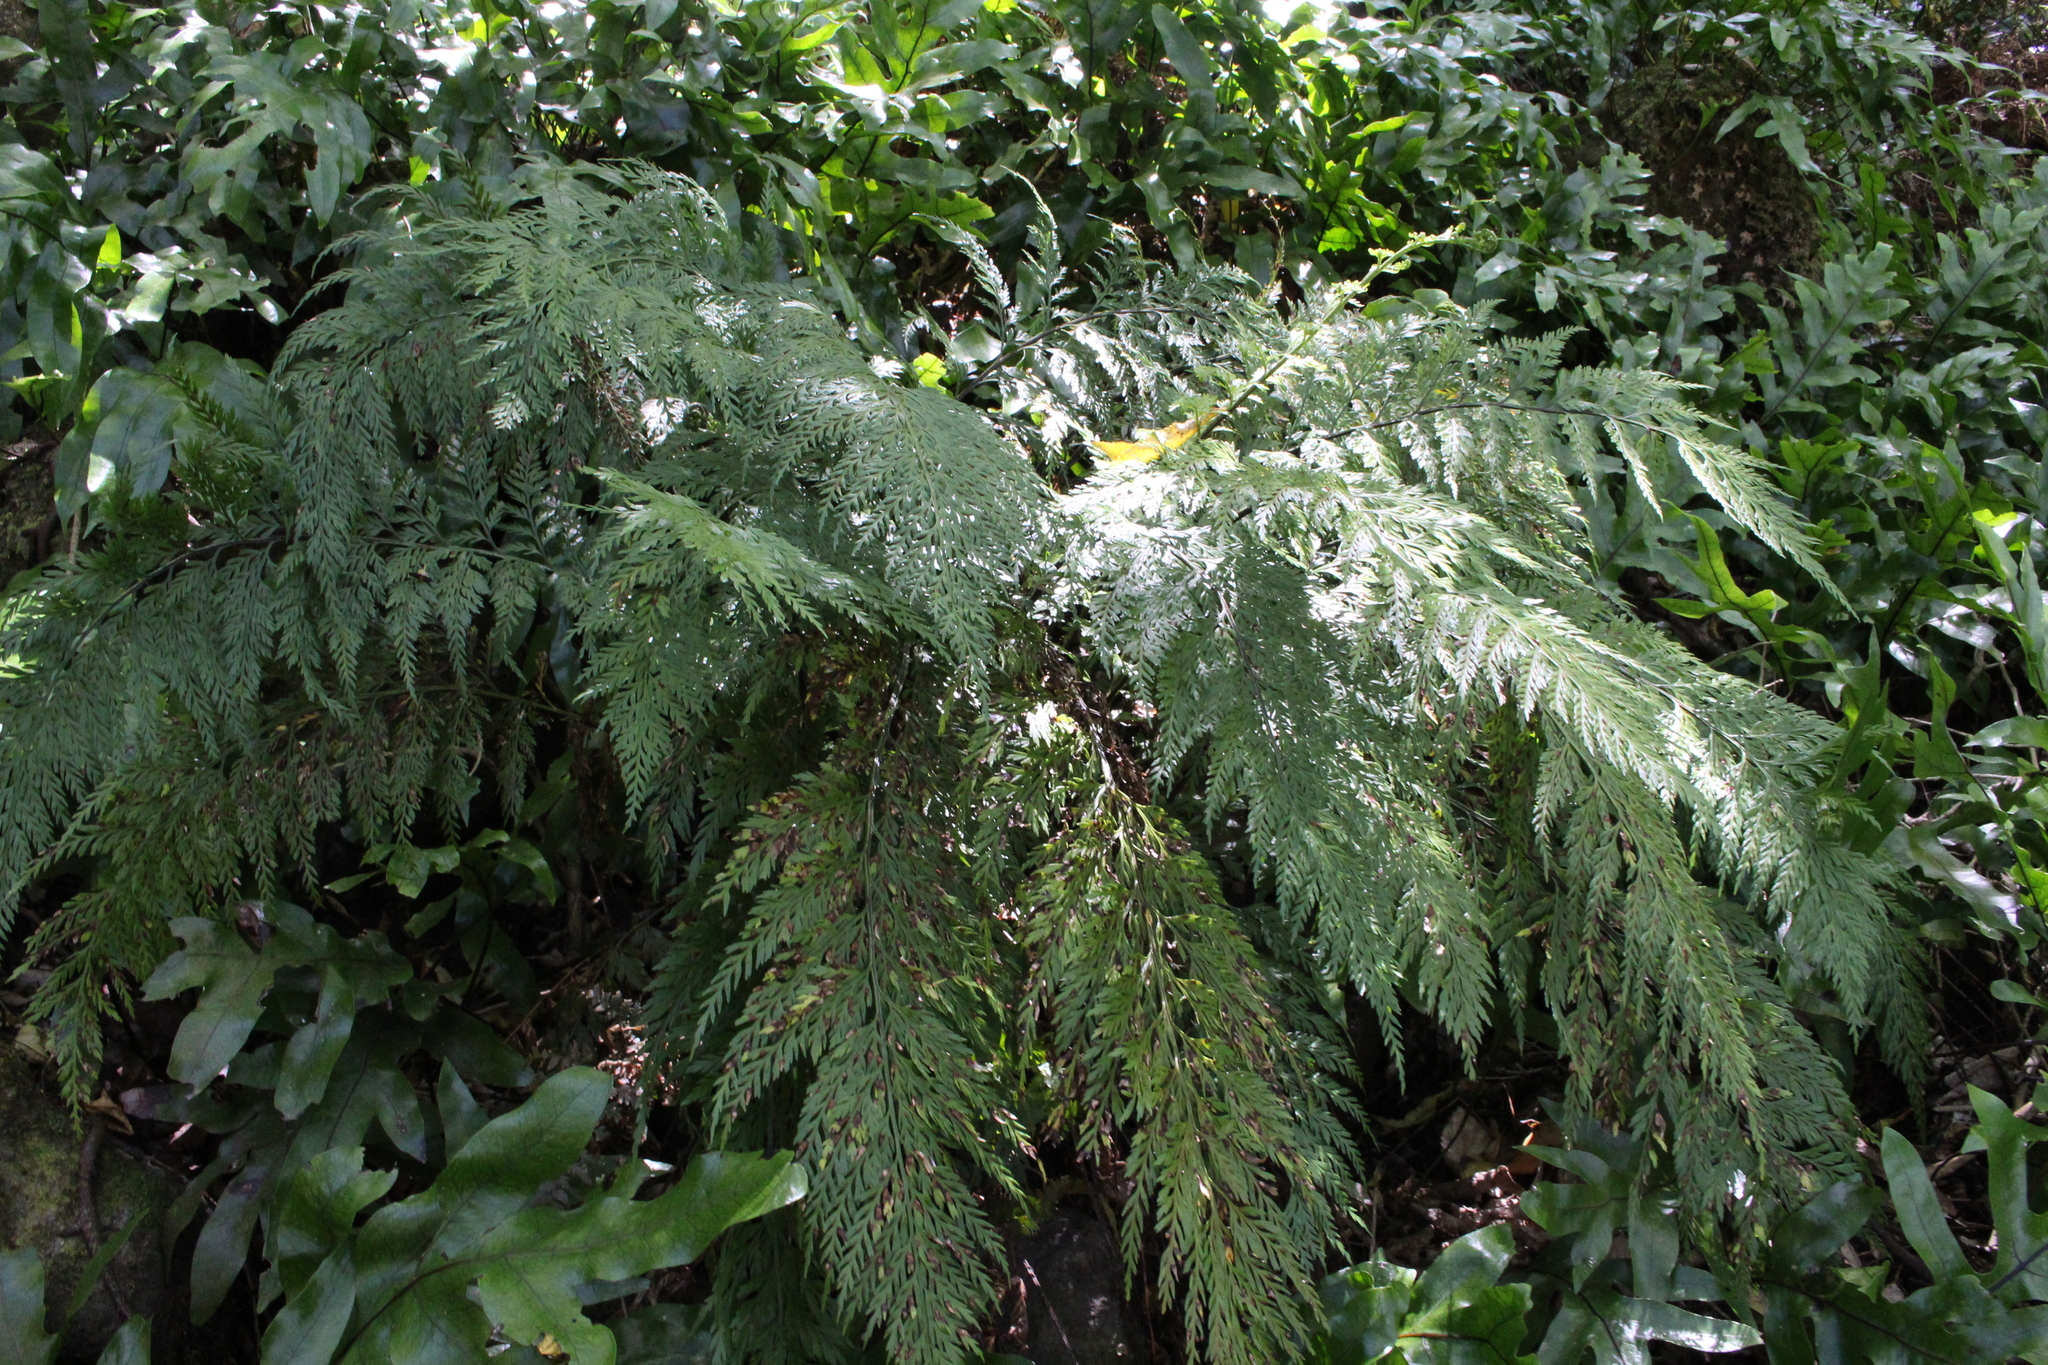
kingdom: Plantae
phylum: Tracheophyta
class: Polypodiopsida
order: Polypodiales
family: Aspleniaceae
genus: Asplenium
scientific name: Asplenium
